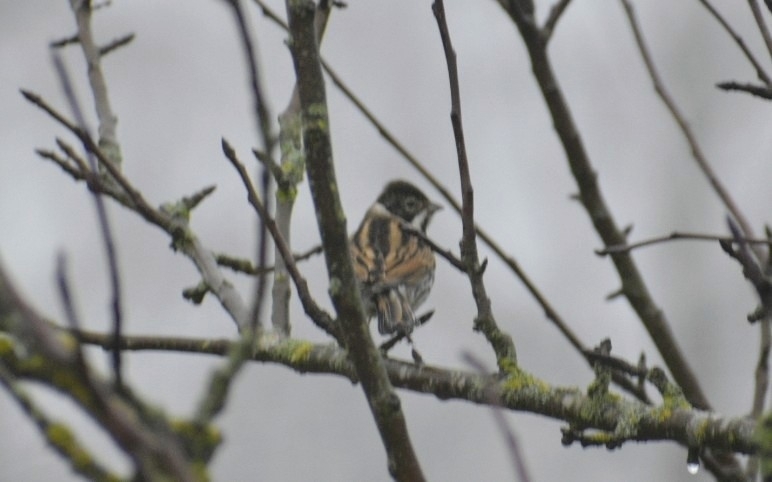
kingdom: Animalia
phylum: Chordata
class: Aves
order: Passeriformes
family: Emberizidae
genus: Emberiza
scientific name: Emberiza schoeniclus
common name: Reed bunting
